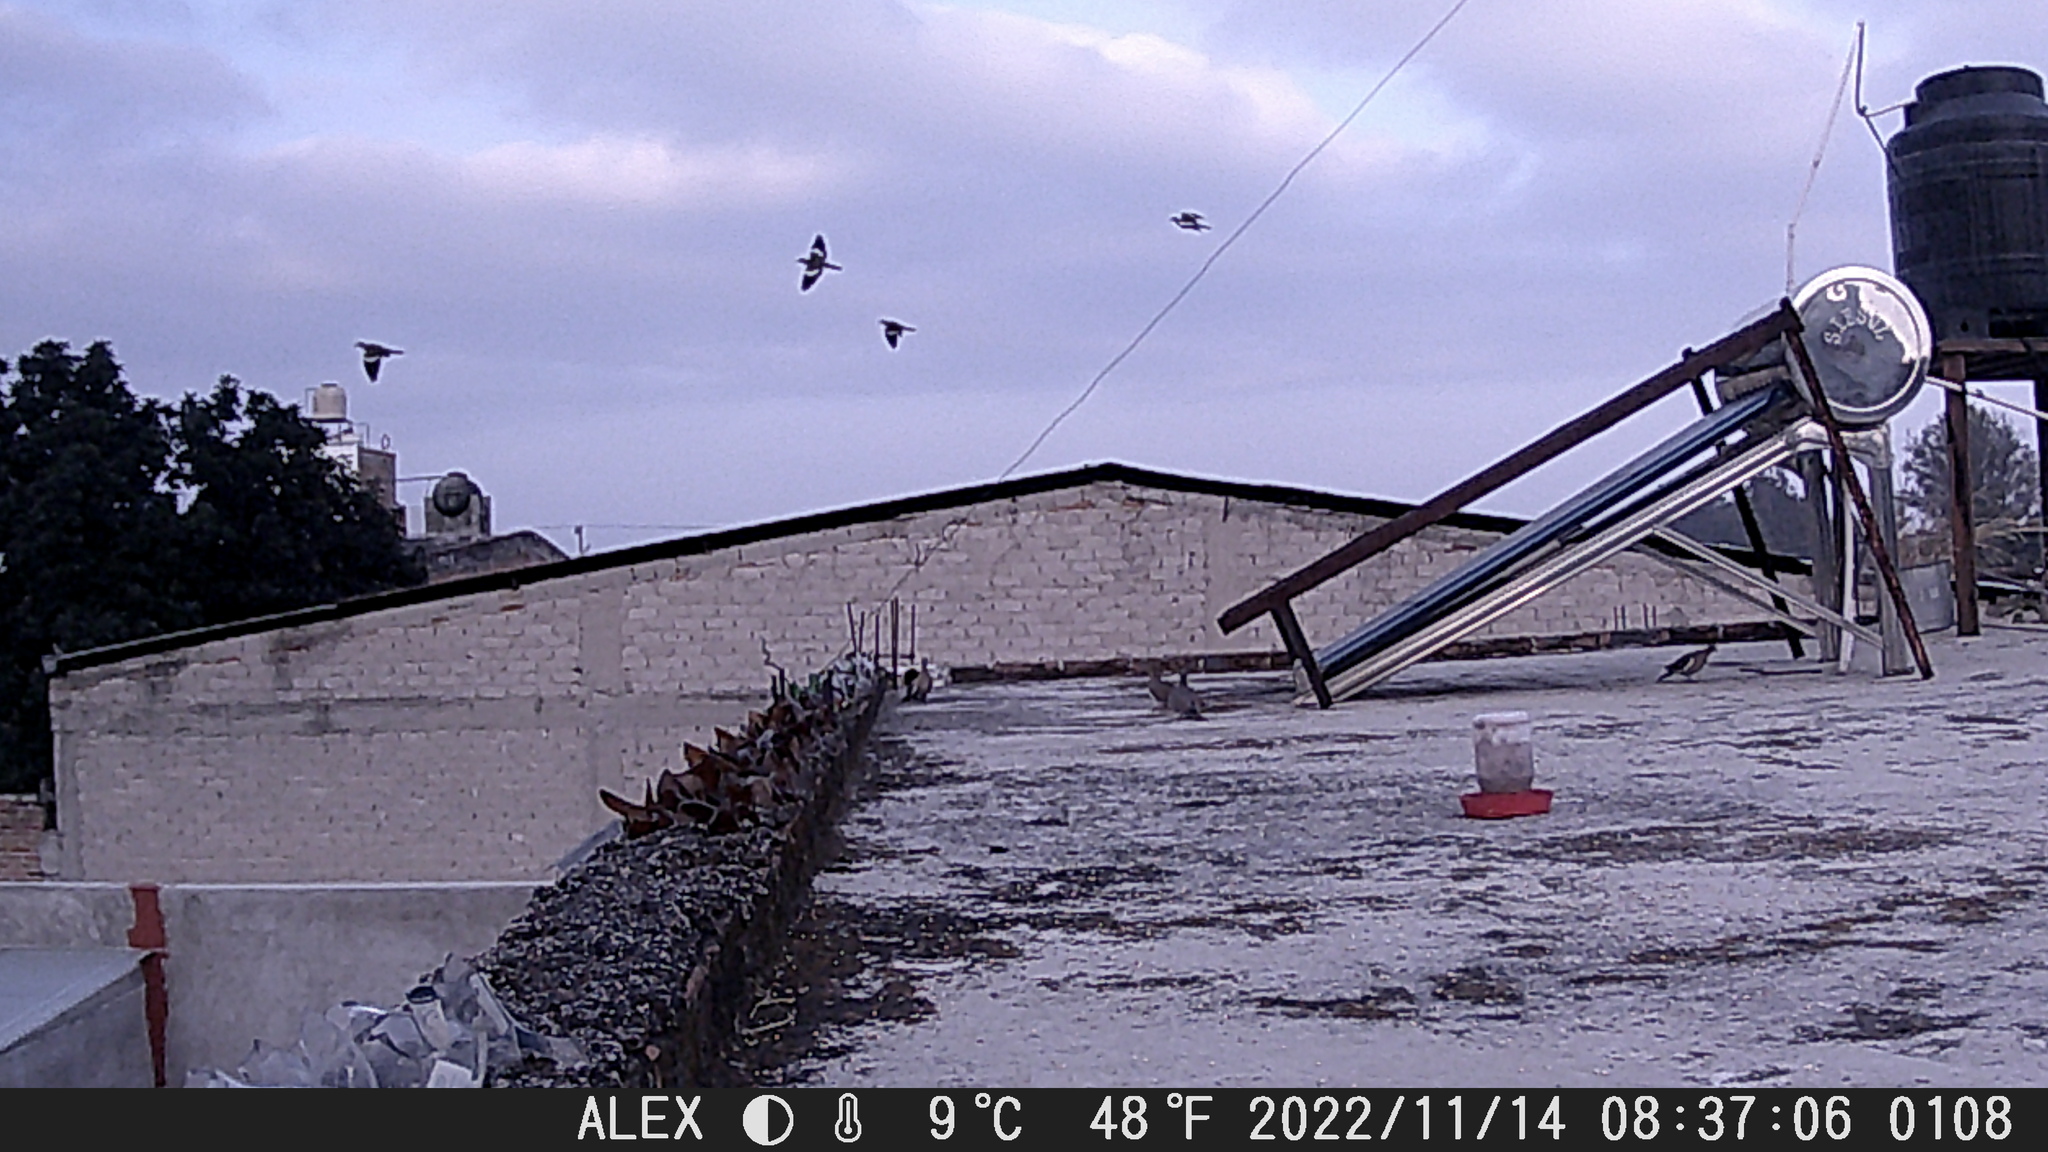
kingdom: Animalia
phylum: Chordata
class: Aves
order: Columbiformes
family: Columbidae
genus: Zenaida
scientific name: Zenaida asiatica
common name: White-winged dove
